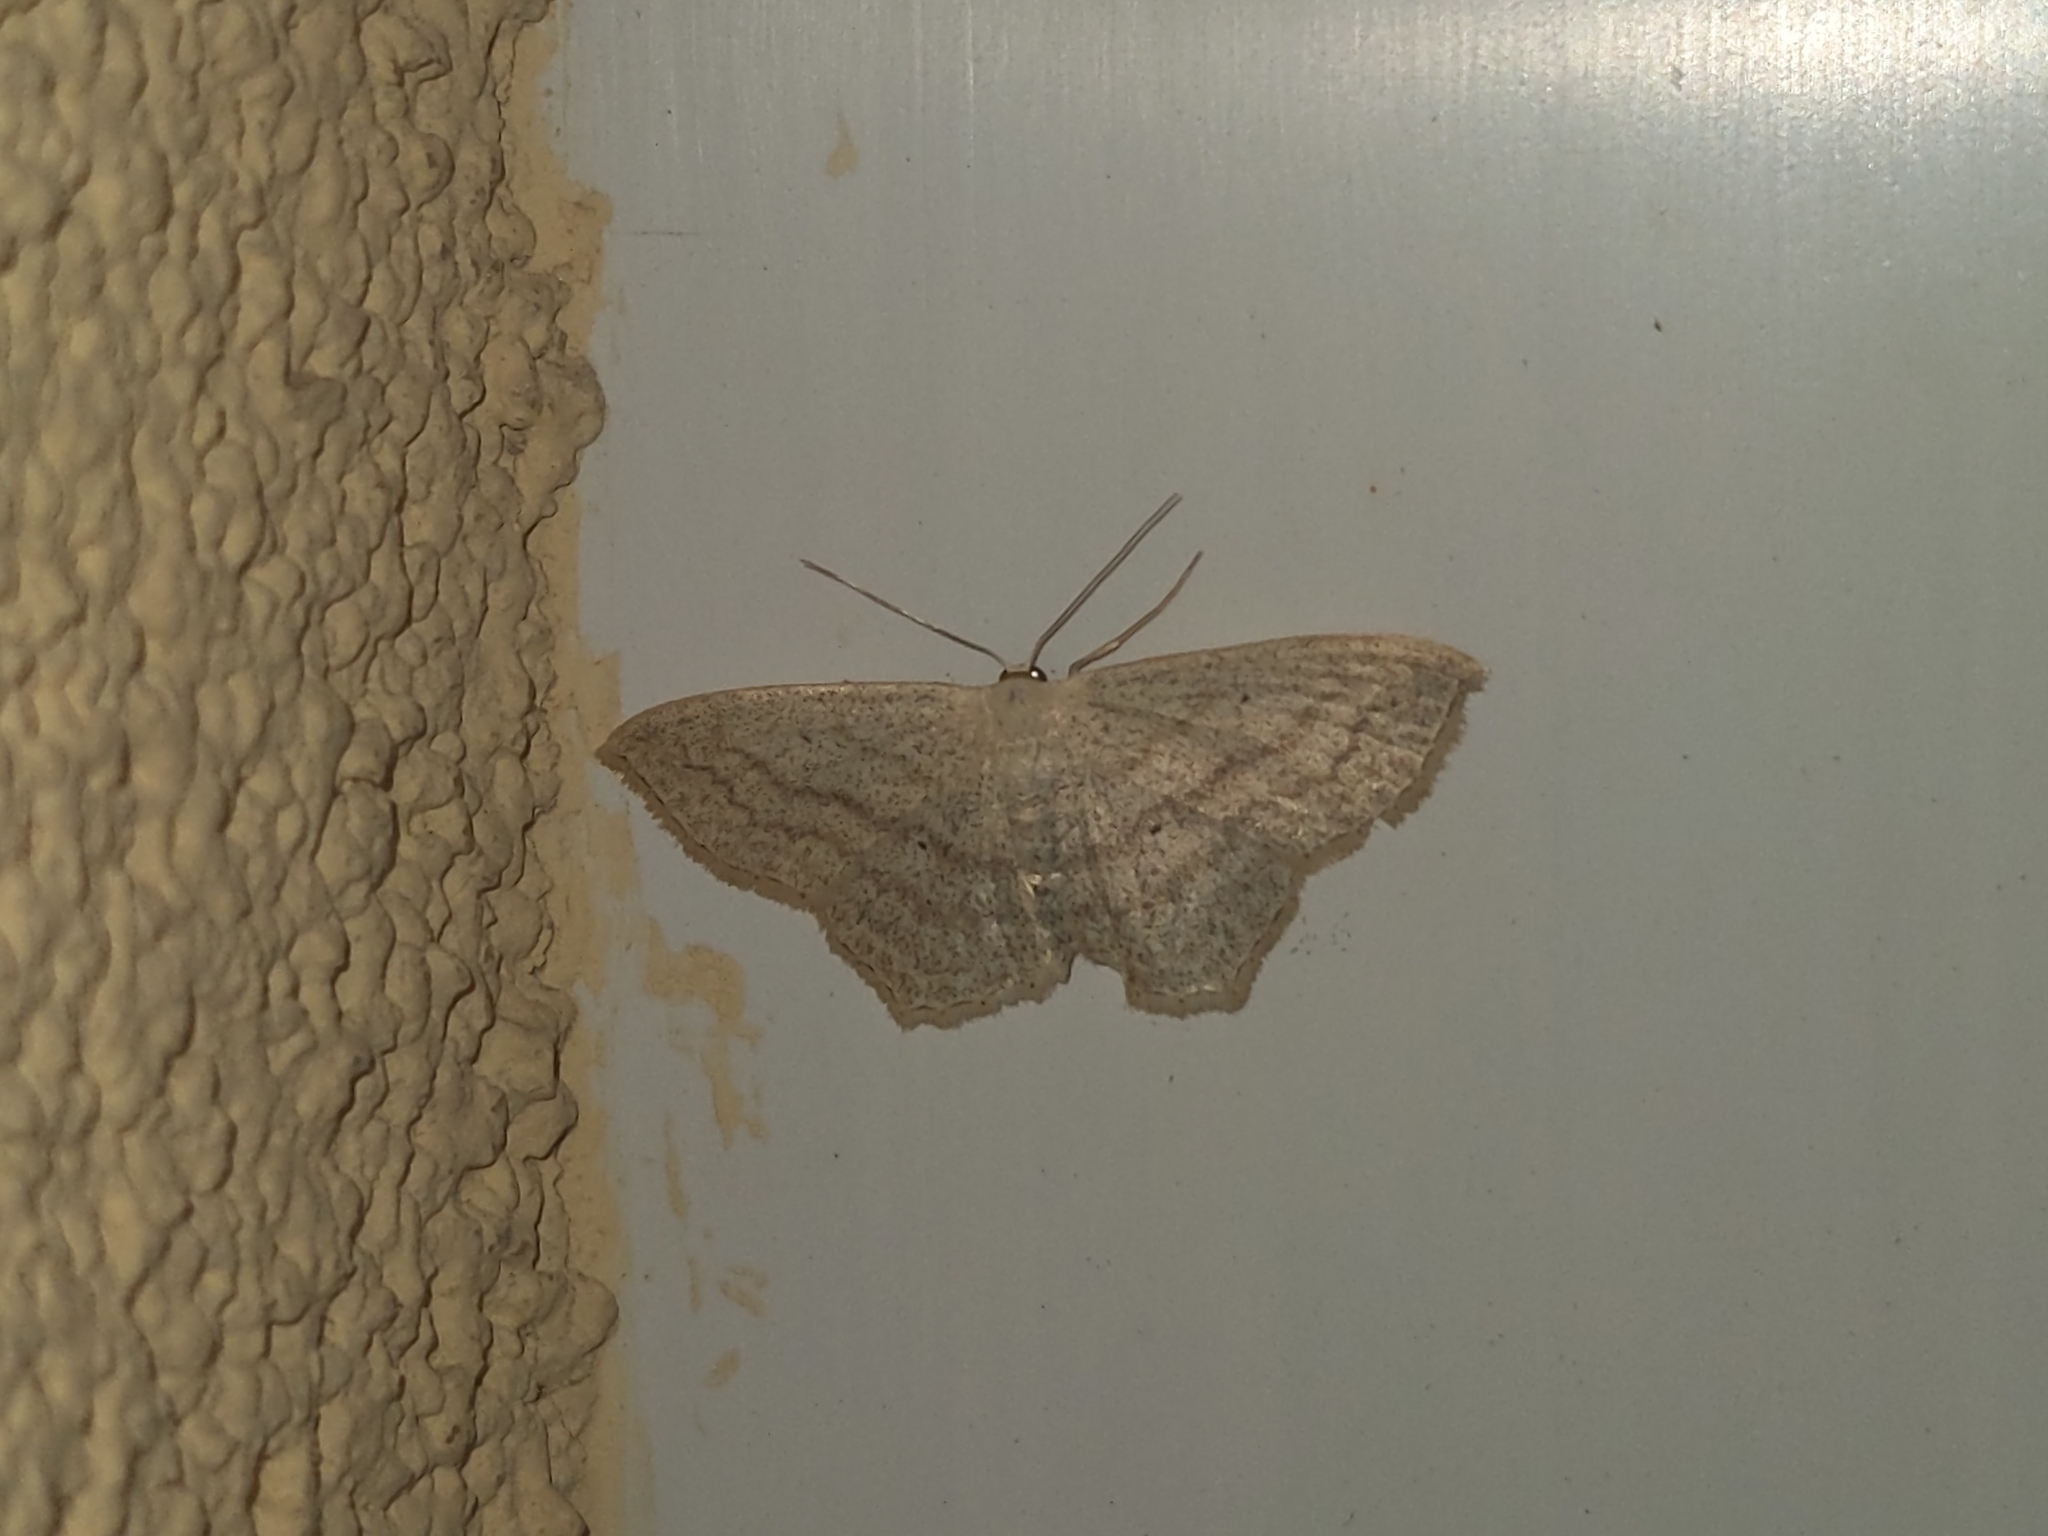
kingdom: Animalia
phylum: Arthropoda
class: Insecta
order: Lepidoptera
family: Geometridae
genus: Scopula
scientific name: Scopula nigropunctata
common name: Sub-angled wave
